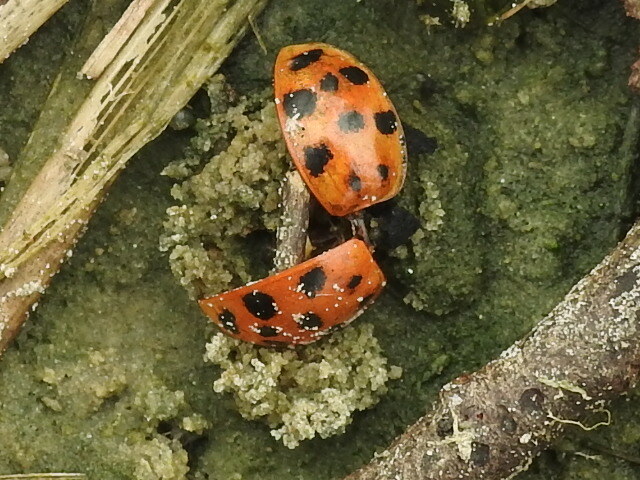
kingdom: Animalia
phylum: Arthropoda
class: Insecta
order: Coleoptera
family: Coccinellidae
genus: Harmonia
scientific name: Harmonia axyridis
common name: Harlequin ladybird
